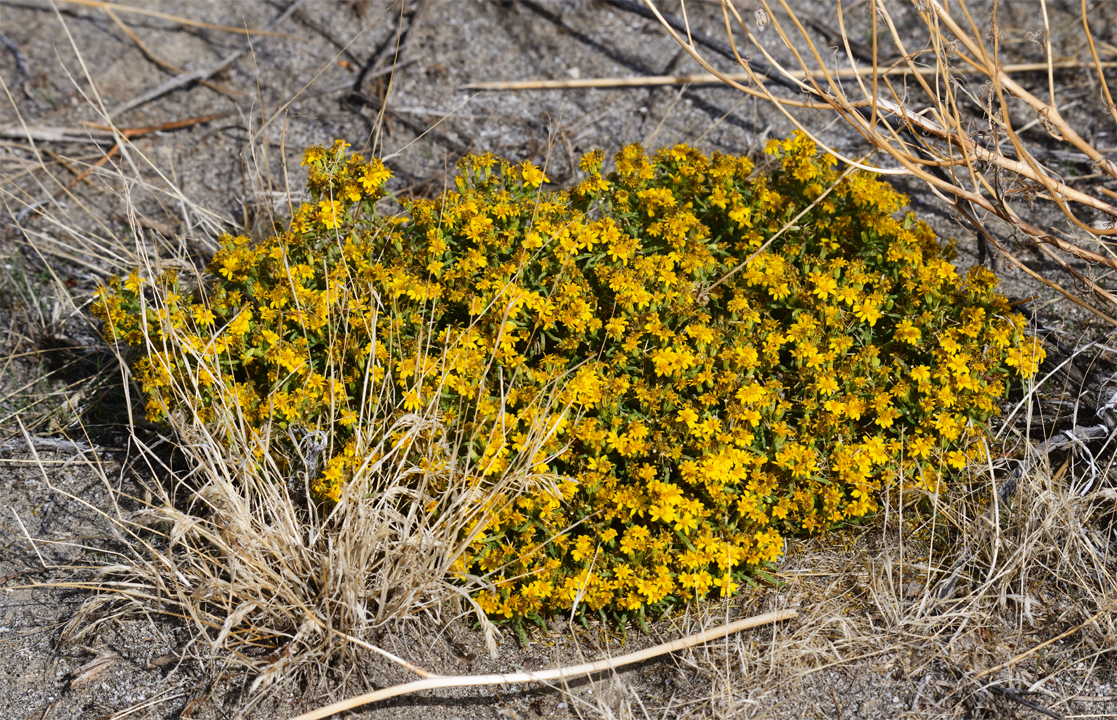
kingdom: Plantae
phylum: Tracheophyta
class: Magnoliopsida
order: Asterales
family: Asteraceae
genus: Pectis
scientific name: Pectis papposa
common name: Many-bristle chinchweed
